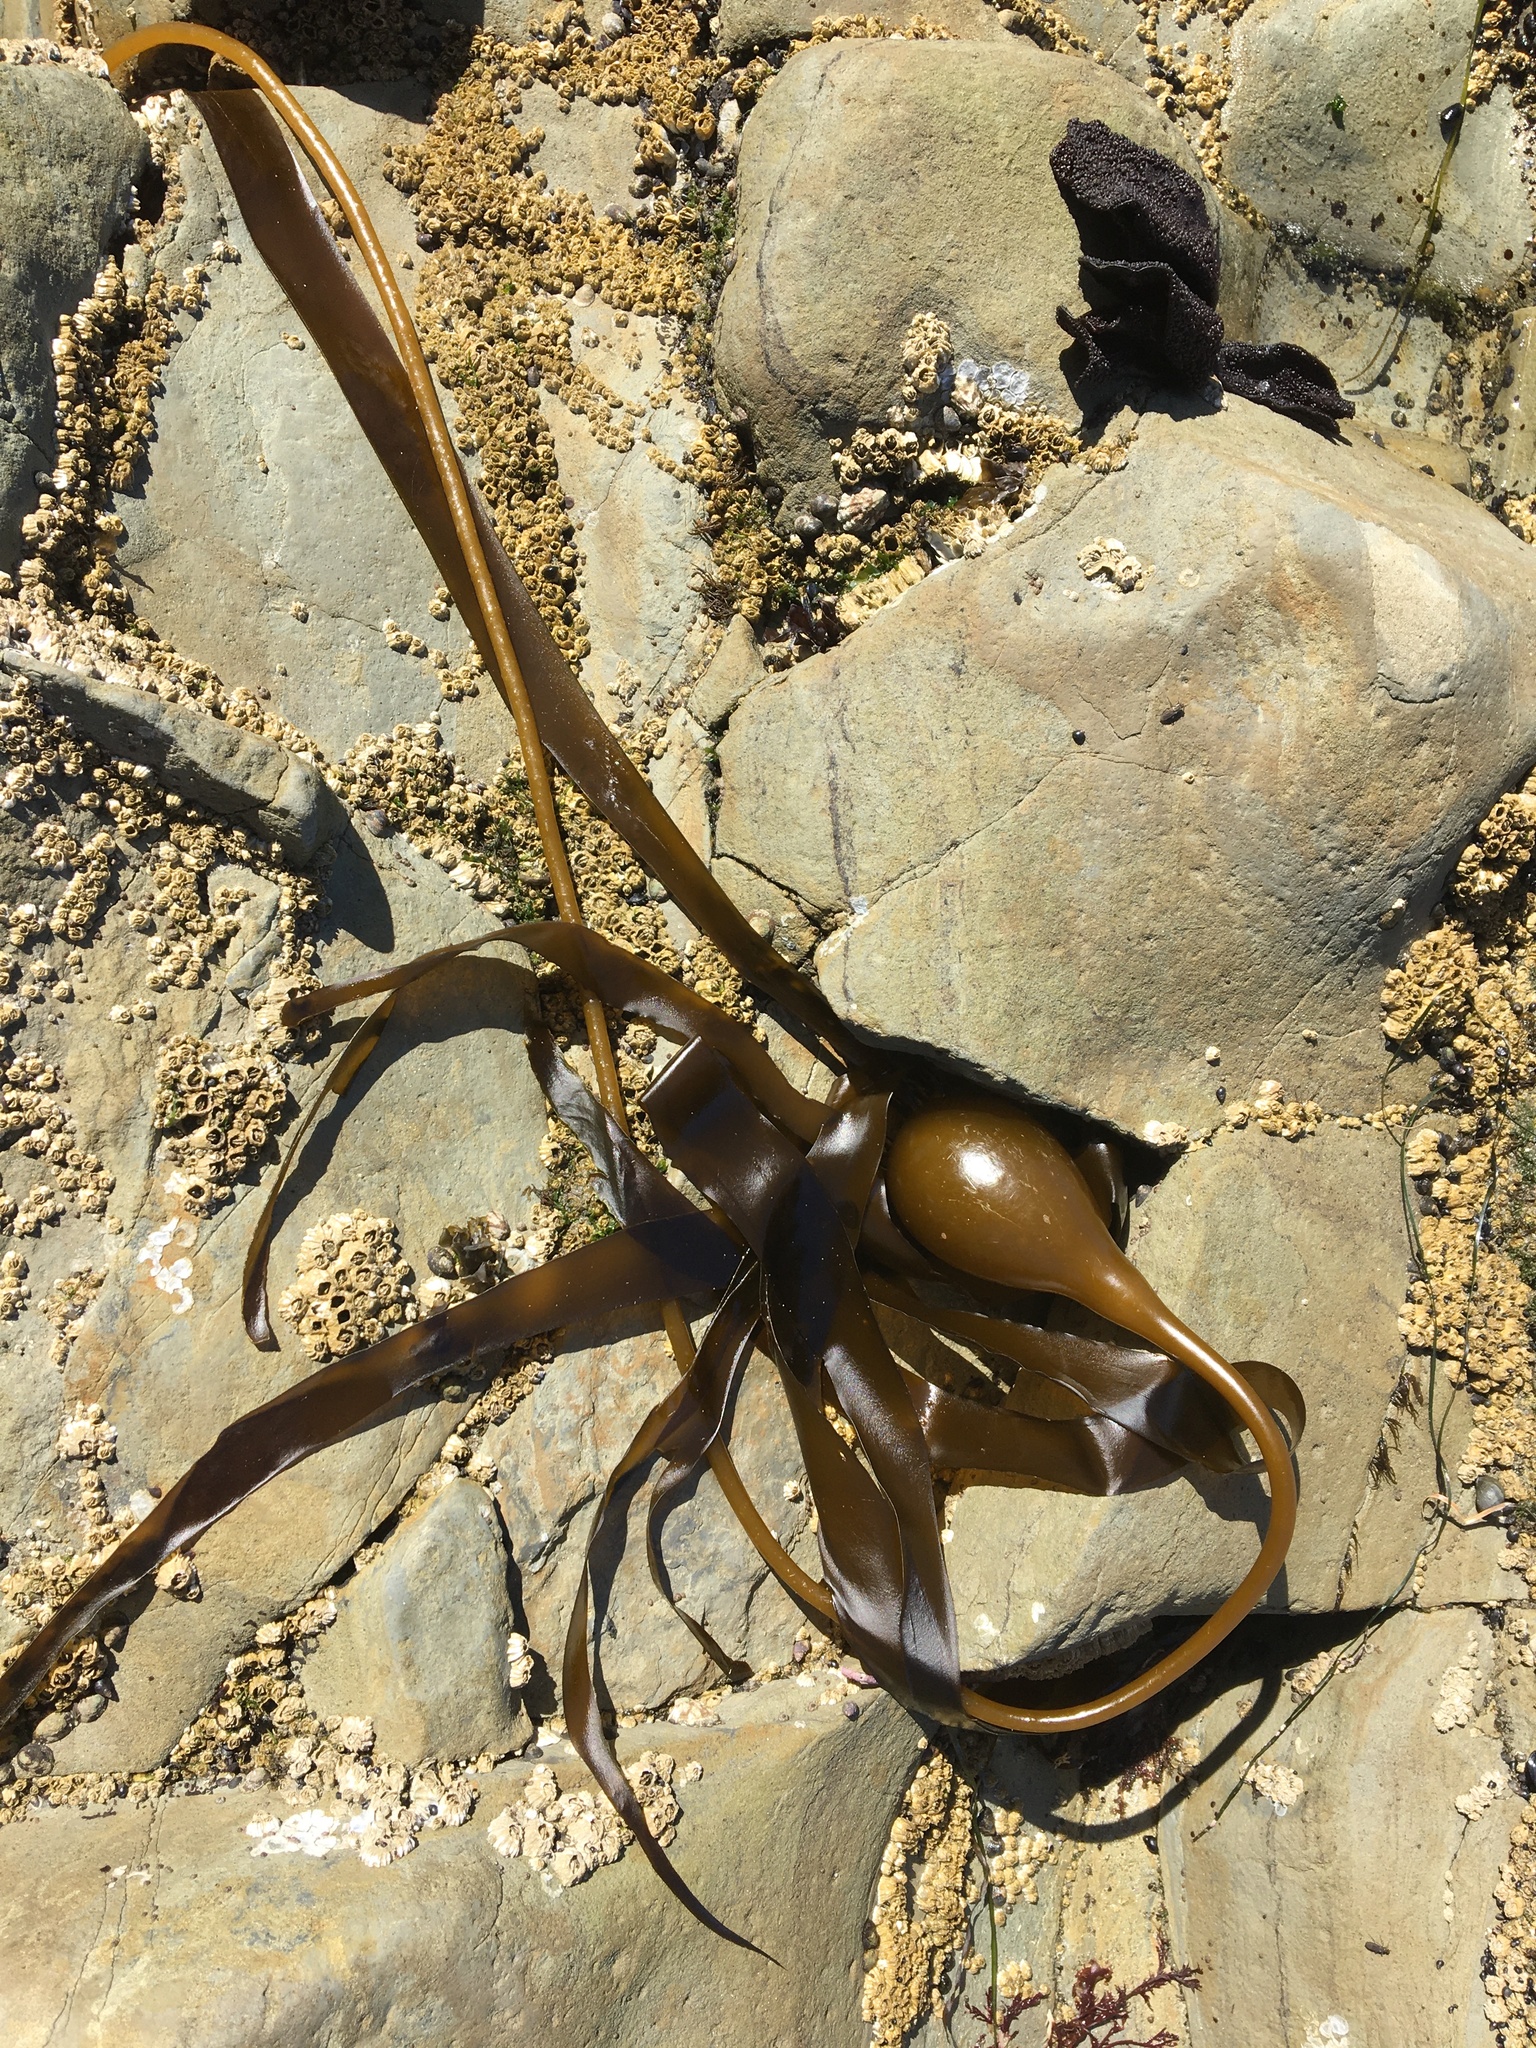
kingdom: Chromista
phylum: Ochrophyta
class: Phaeophyceae
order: Laminariales
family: Laminariaceae
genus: Nereocystis
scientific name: Nereocystis luetkeana
